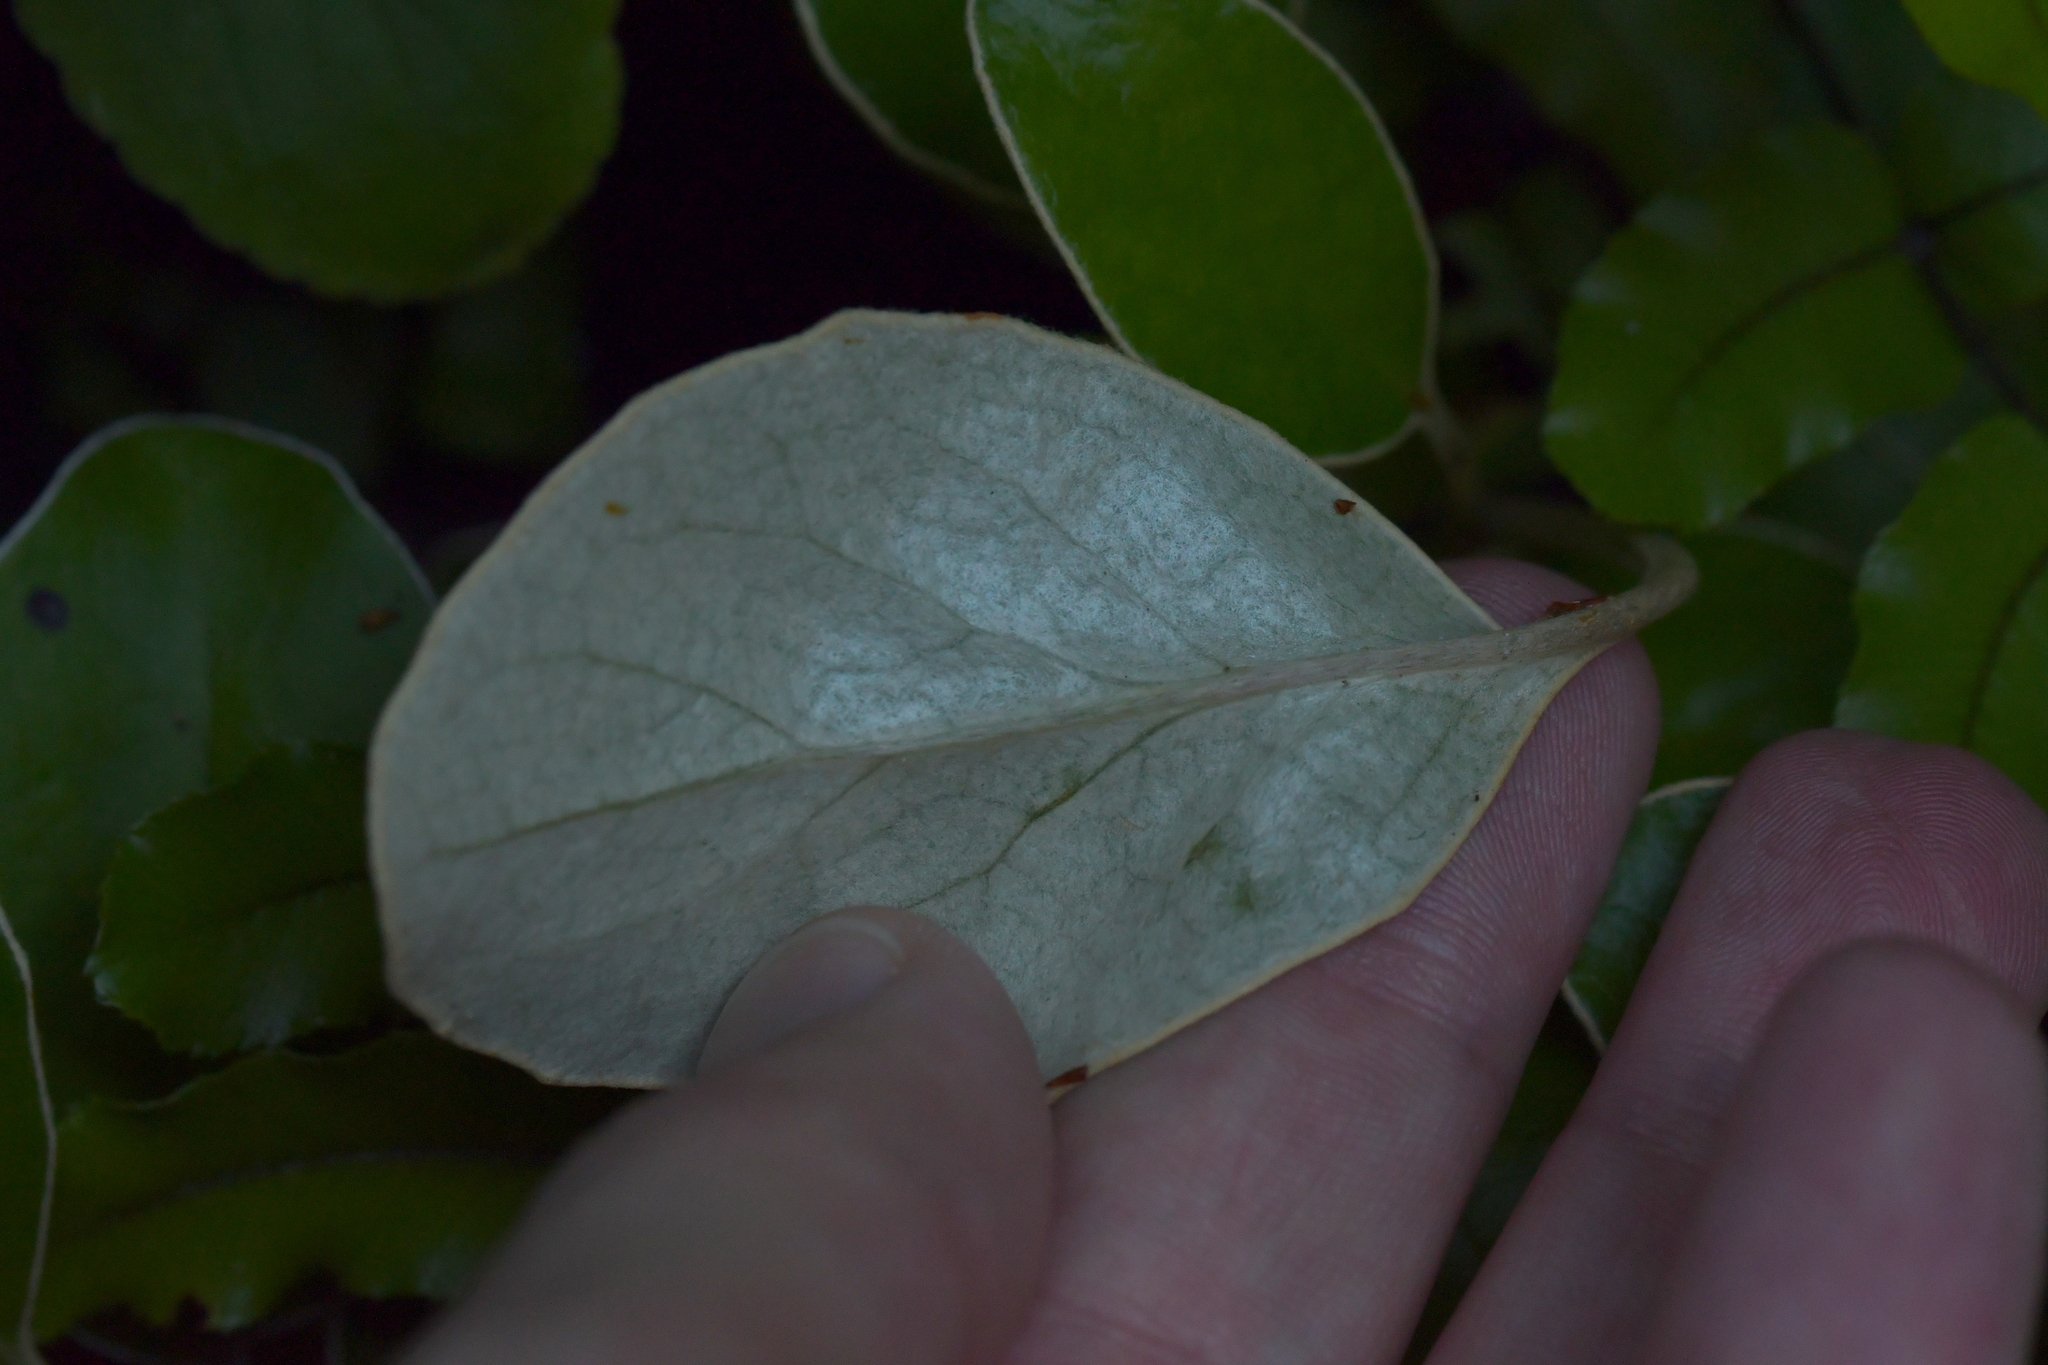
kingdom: Plantae
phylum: Tracheophyta
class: Magnoliopsida
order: Asterales
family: Asteraceae
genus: Brachyglottis
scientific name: Brachyglottis elaeagnifolia
